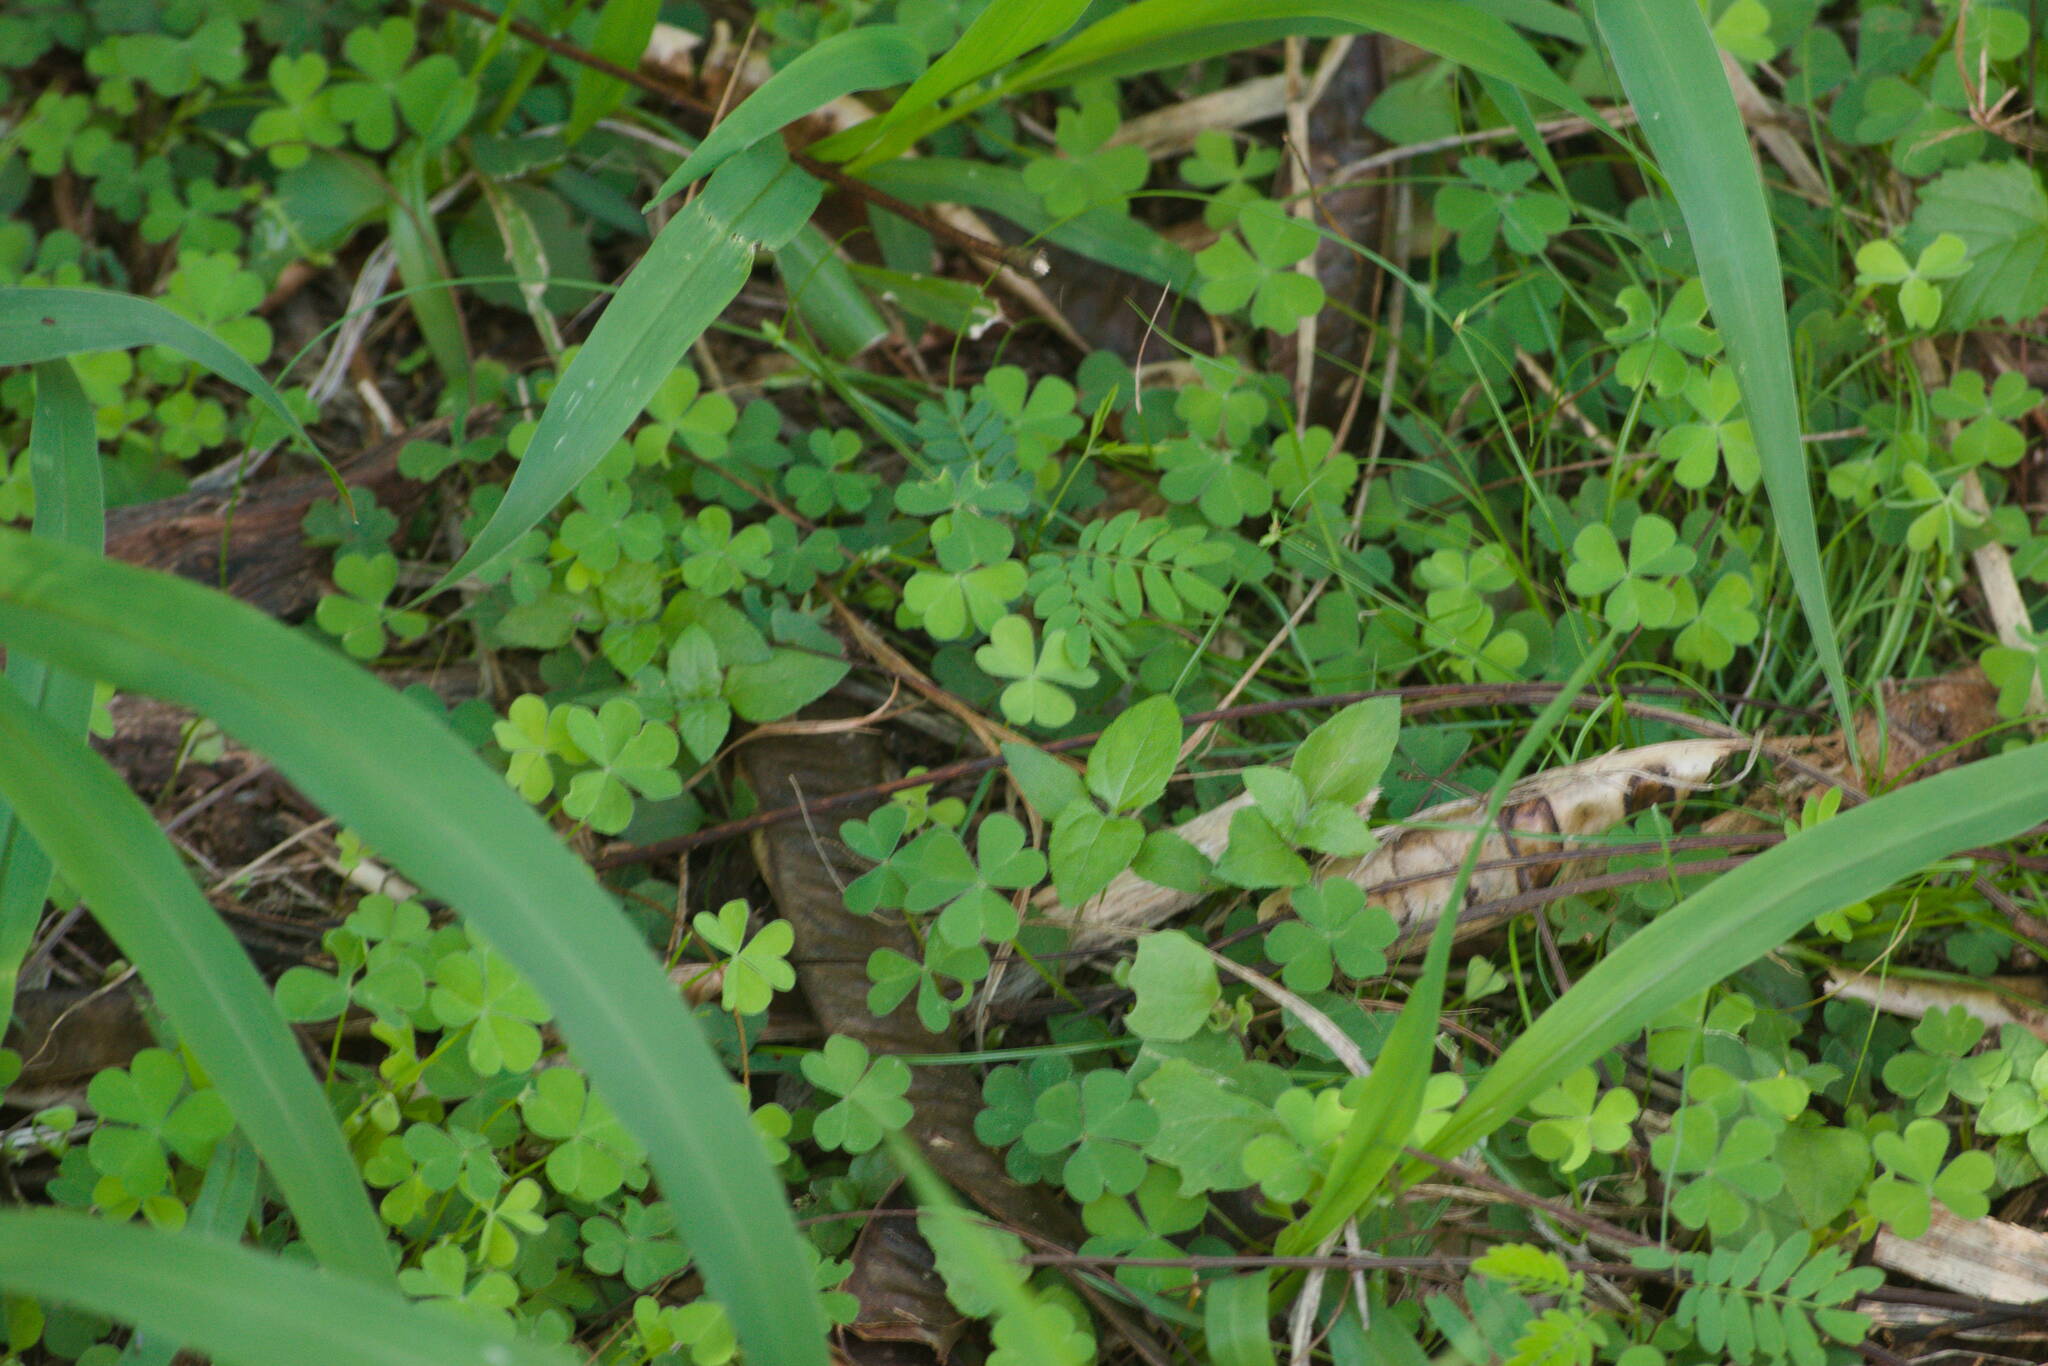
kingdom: Plantae
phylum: Tracheophyta
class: Magnoliopsida
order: Oxalidales
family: Oxalidaceae
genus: Oxalis
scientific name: Oxalis corniculata
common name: Procumbent yellow-sorrel
